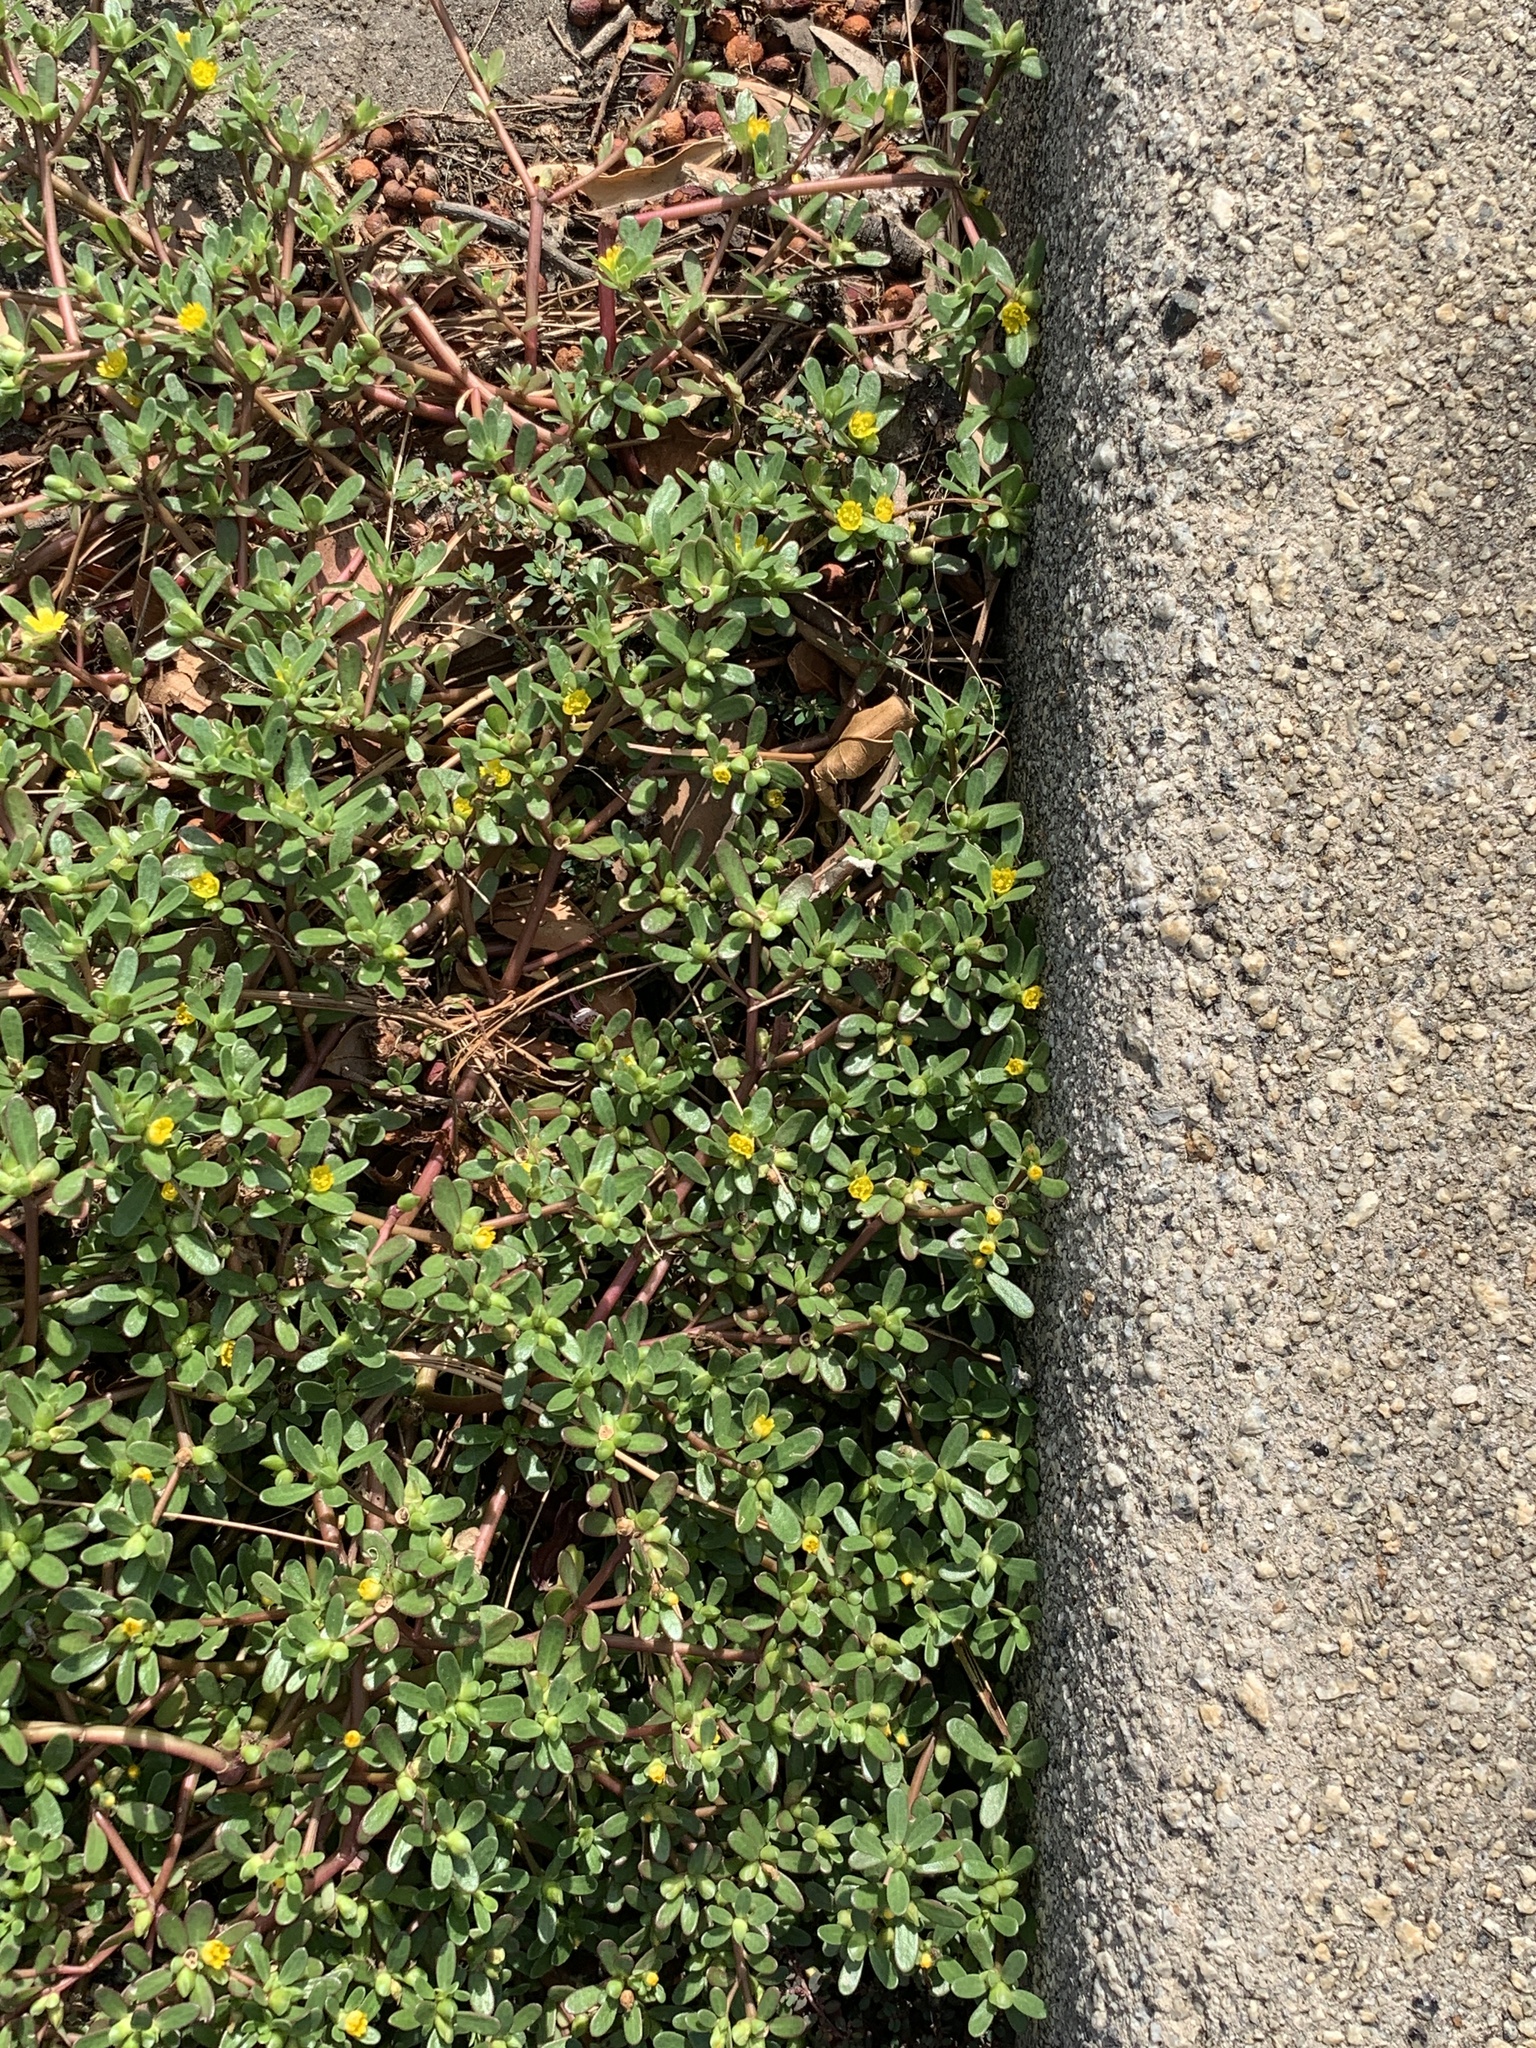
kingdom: Plantae
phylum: Tracheophyta
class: Magnoliopsida
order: Caryophyllales
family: Portulacaceae
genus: Portulaca
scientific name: Portulaca oleracea
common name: Common purslane
